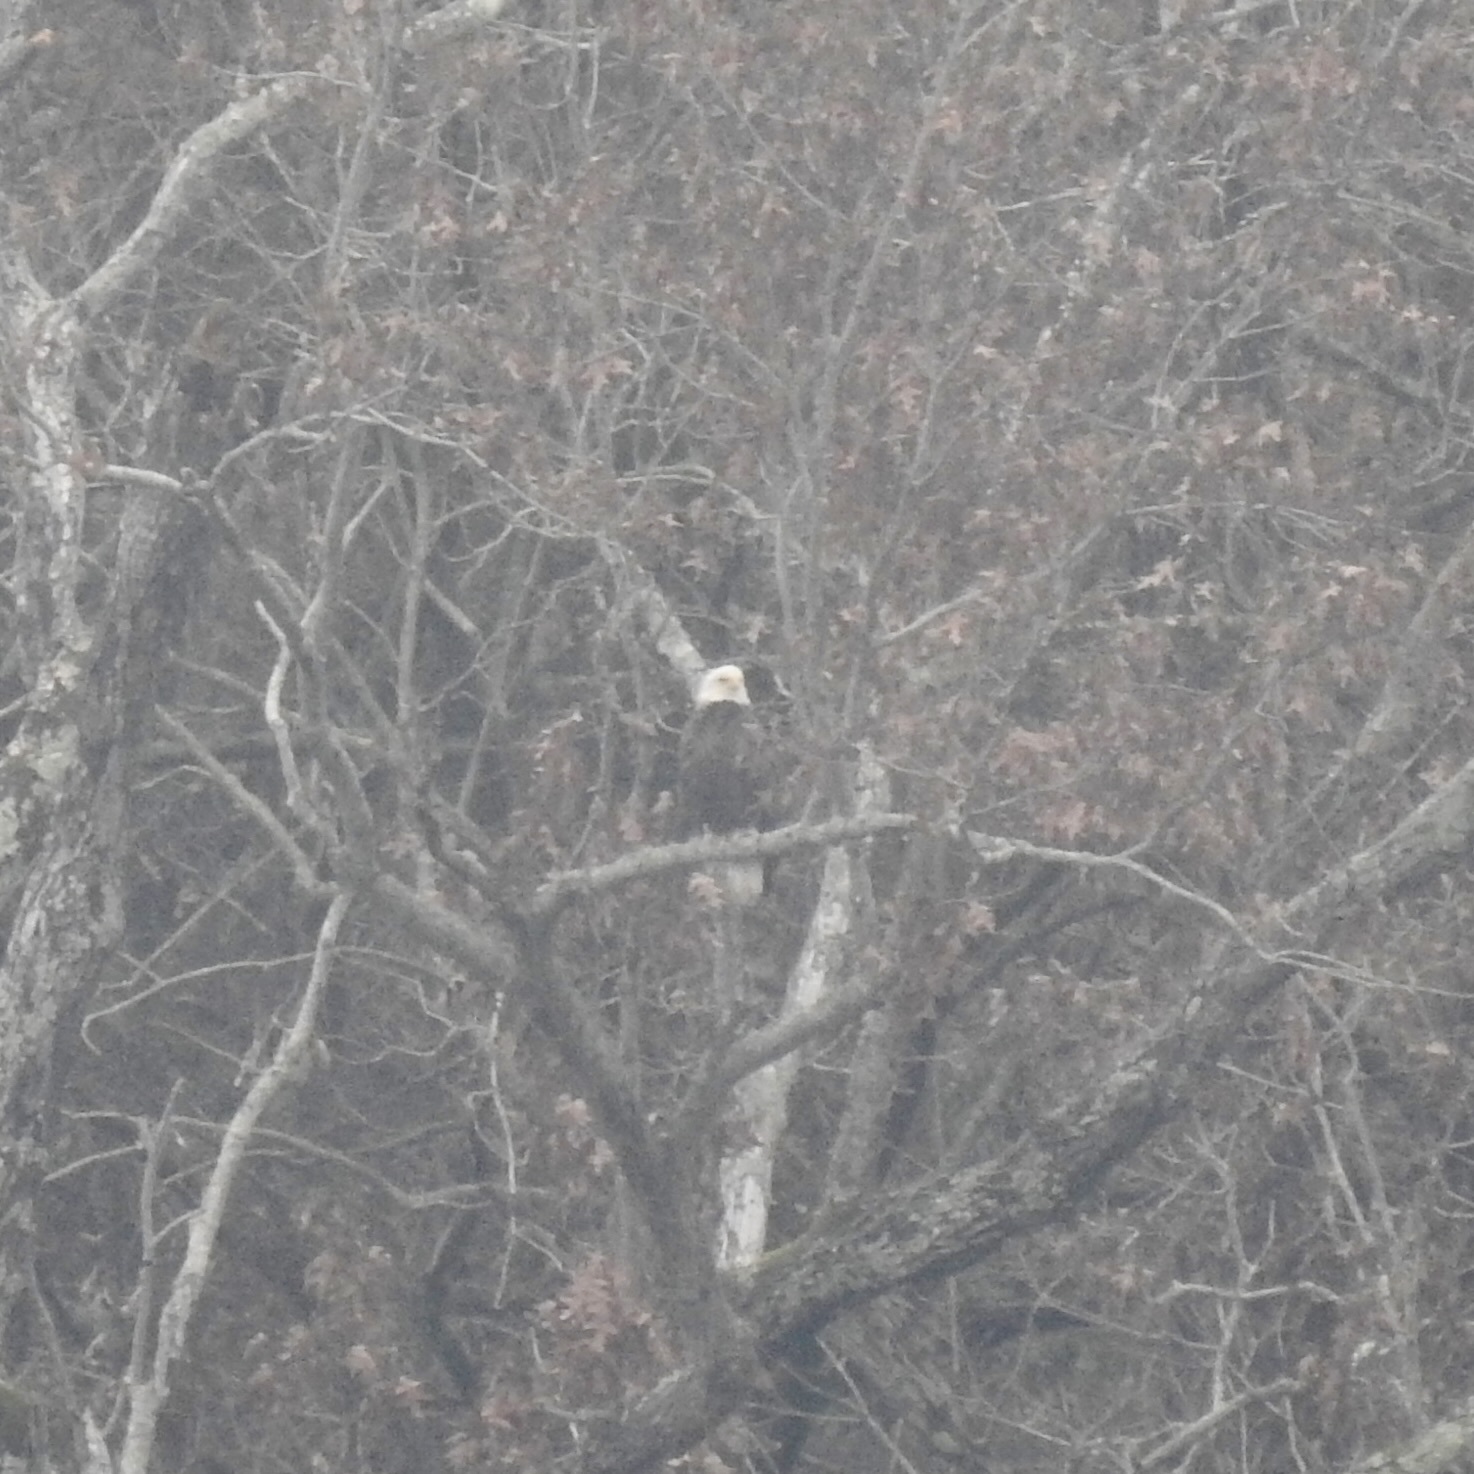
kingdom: Animalia
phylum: Chordata
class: Aves
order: Accipitriformes
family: Accipitridae
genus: Haliaeetus
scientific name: Haliaeetus leucocephalus
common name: Bald eagle
